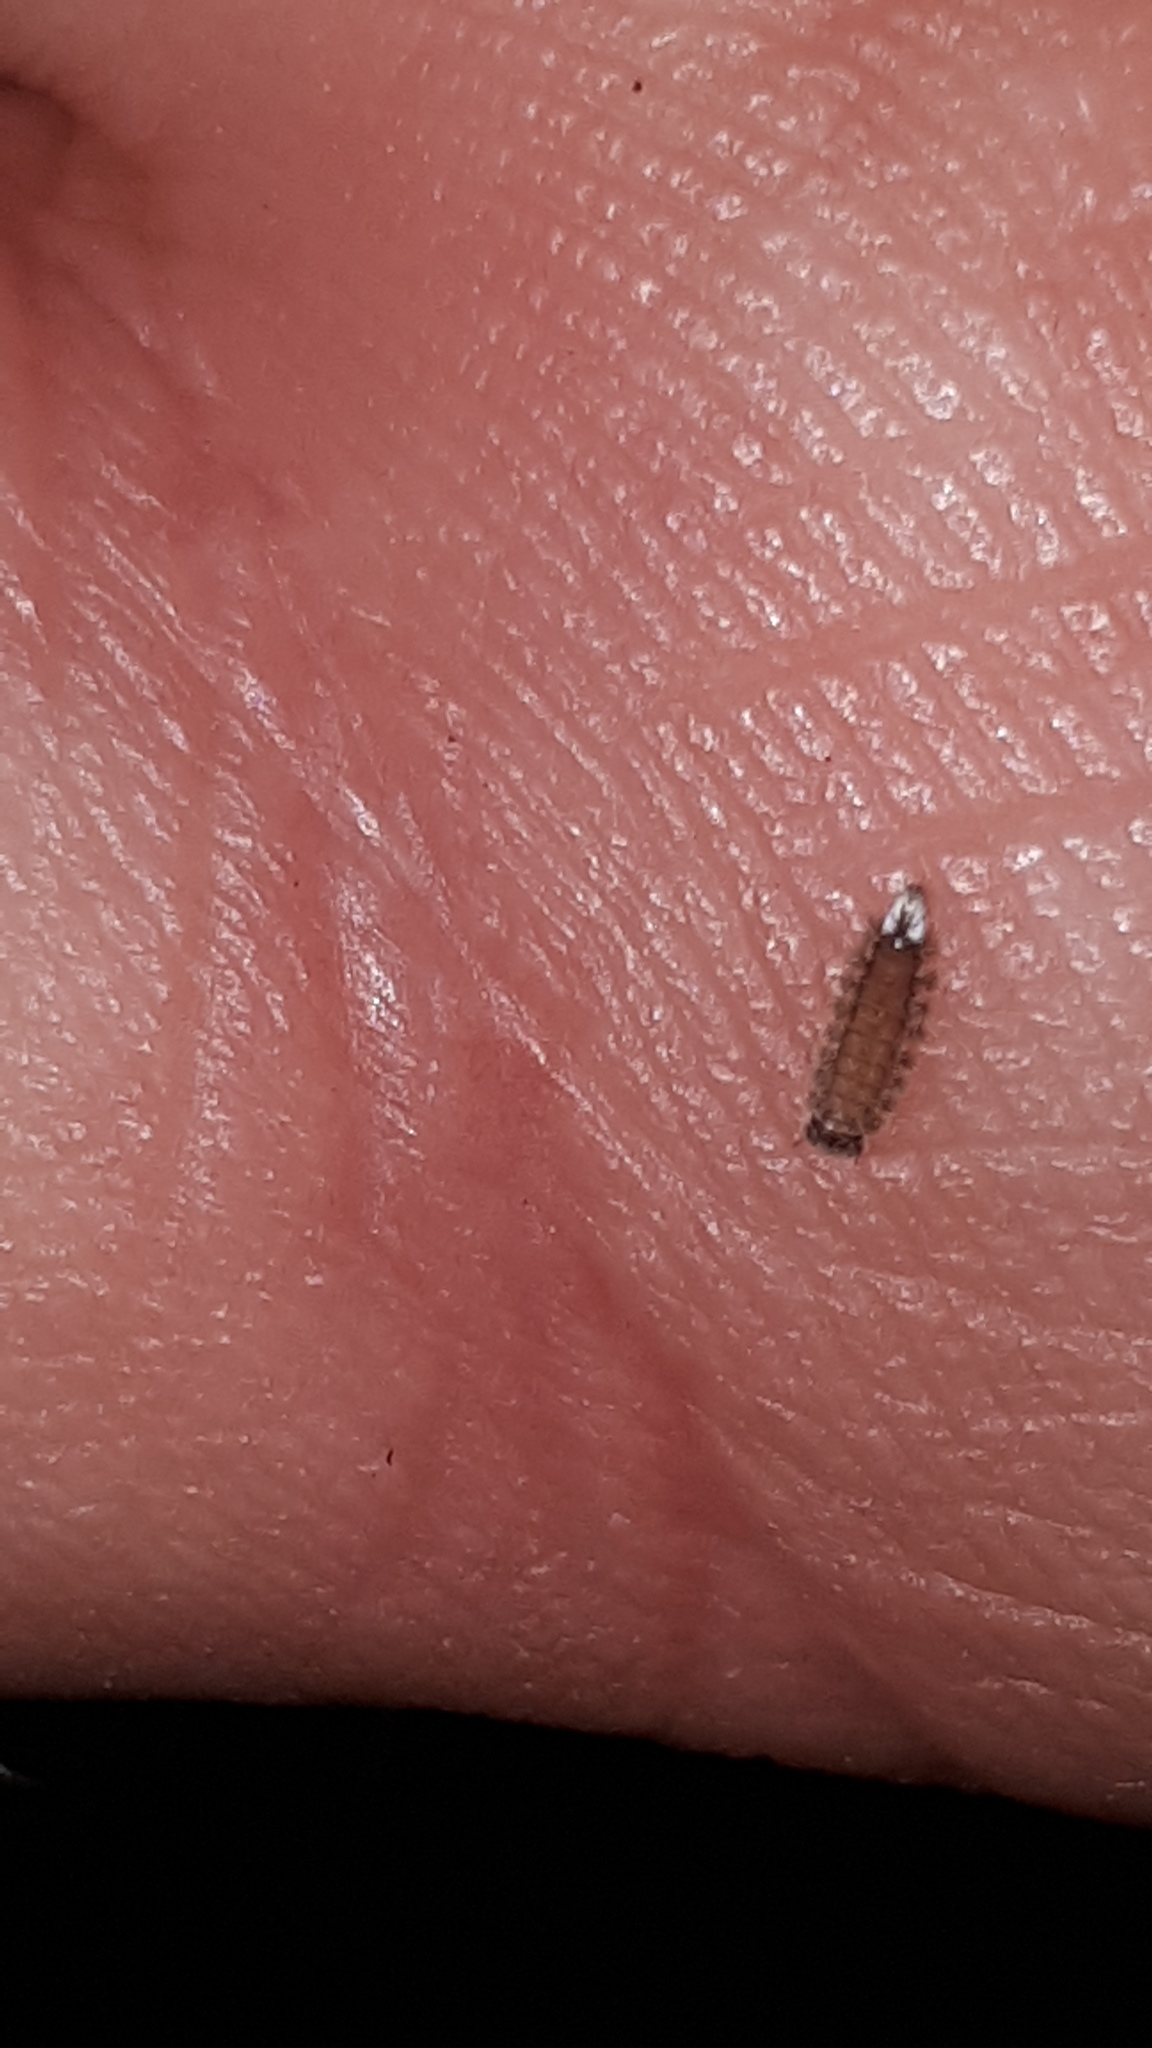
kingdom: Animalia
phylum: Arthropoda
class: Diplopoda
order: Polyxenida
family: Polyxenidae
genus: Polyxenus
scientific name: Polyxenus lagurus
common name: Bristly millipede
